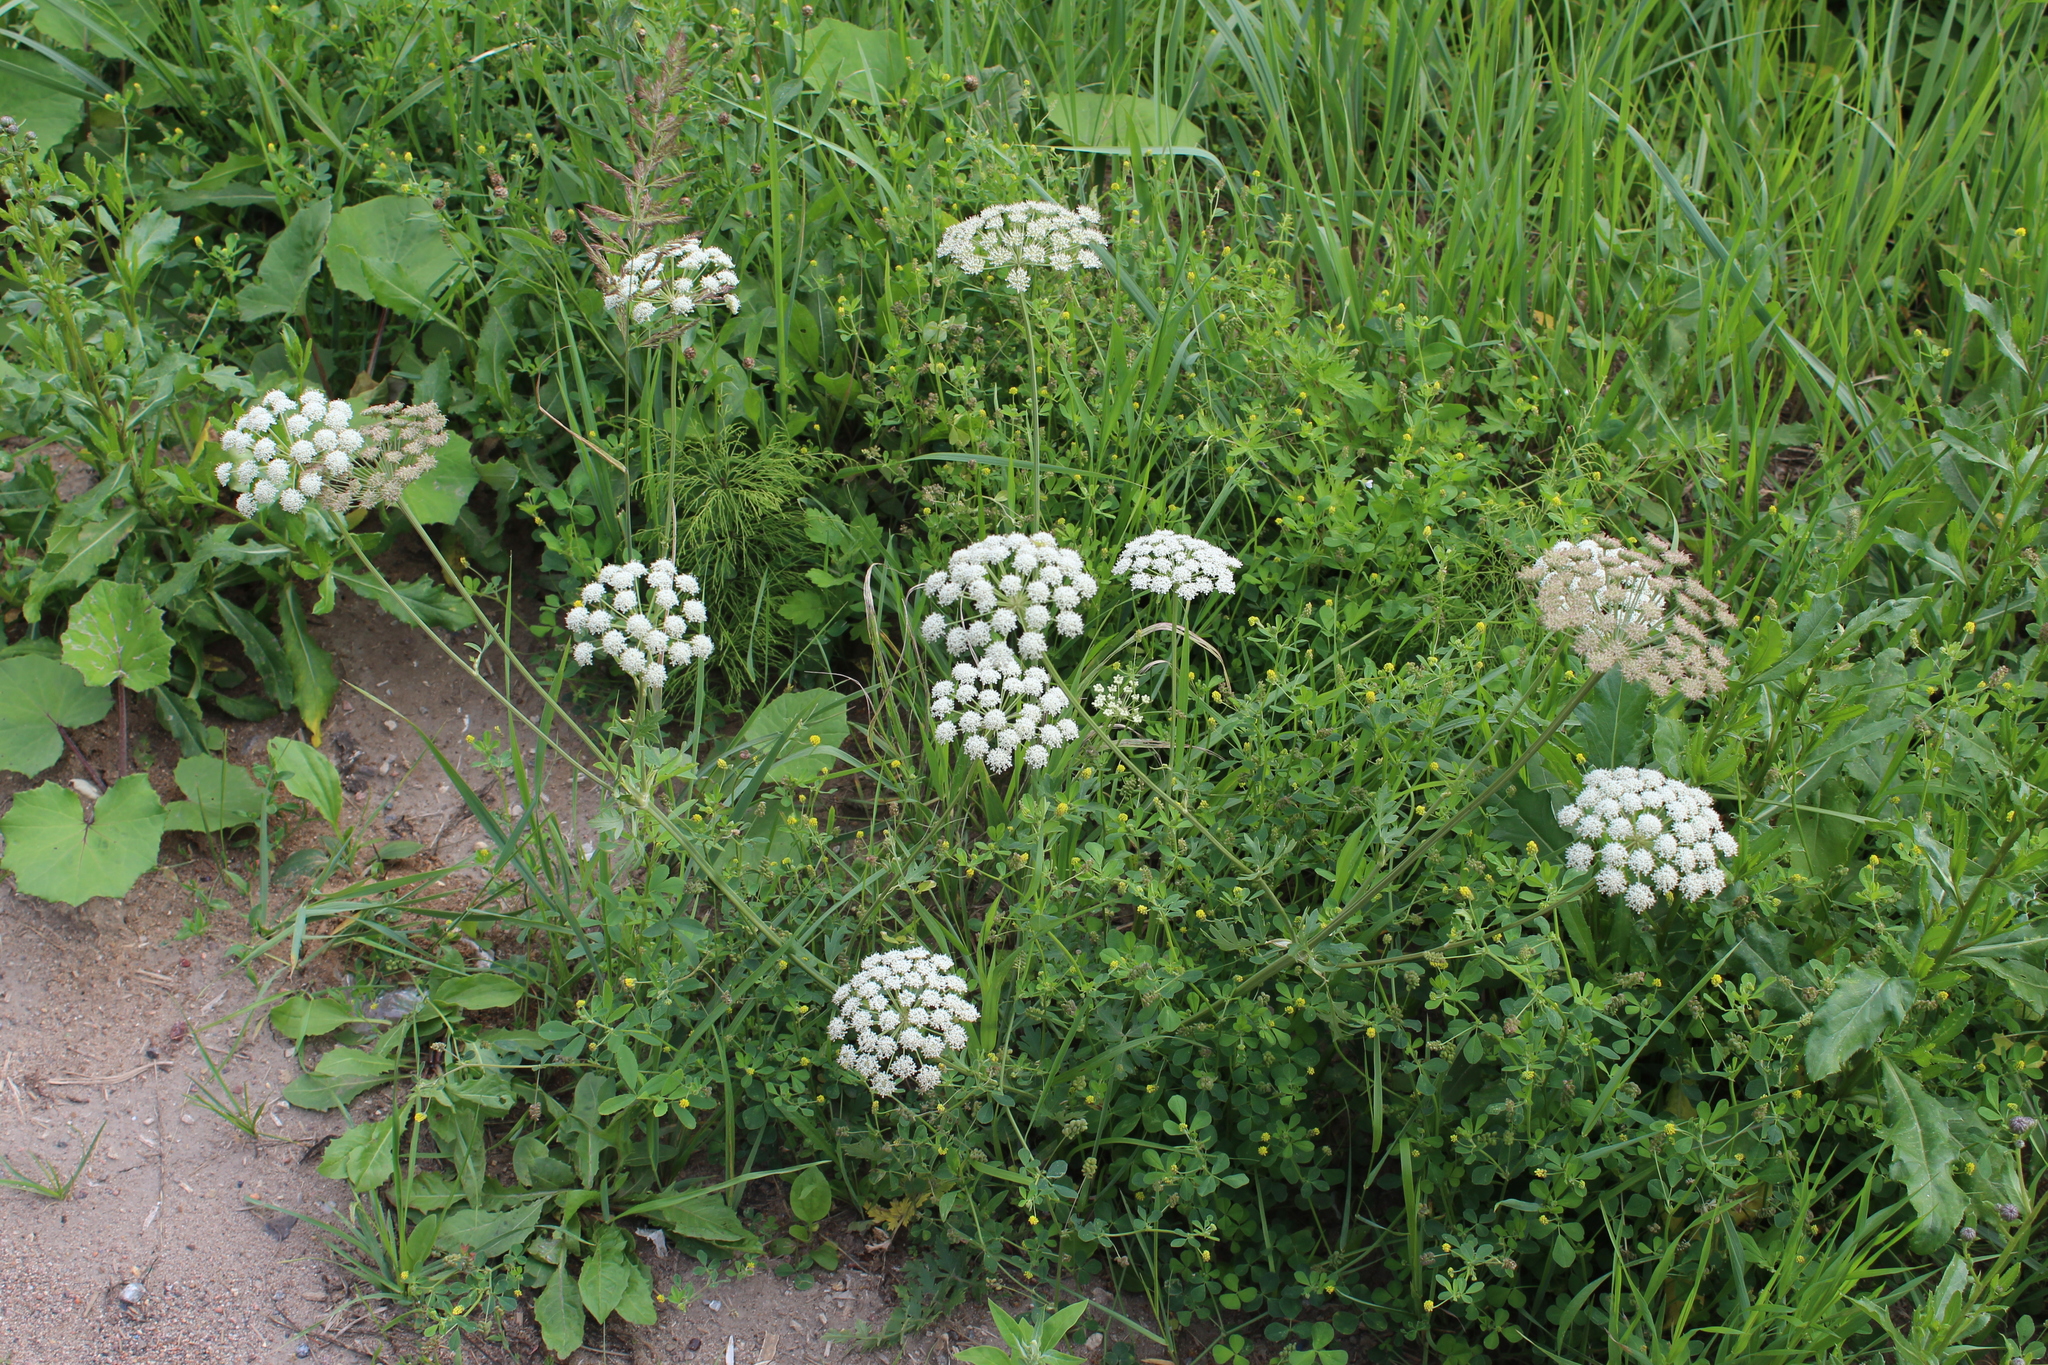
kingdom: Plantae
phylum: Tracheophyta
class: Magnoliopsida
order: Apiales
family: Apiaceae
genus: Seseli
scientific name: Seseli libanotis
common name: Mooncarrot
